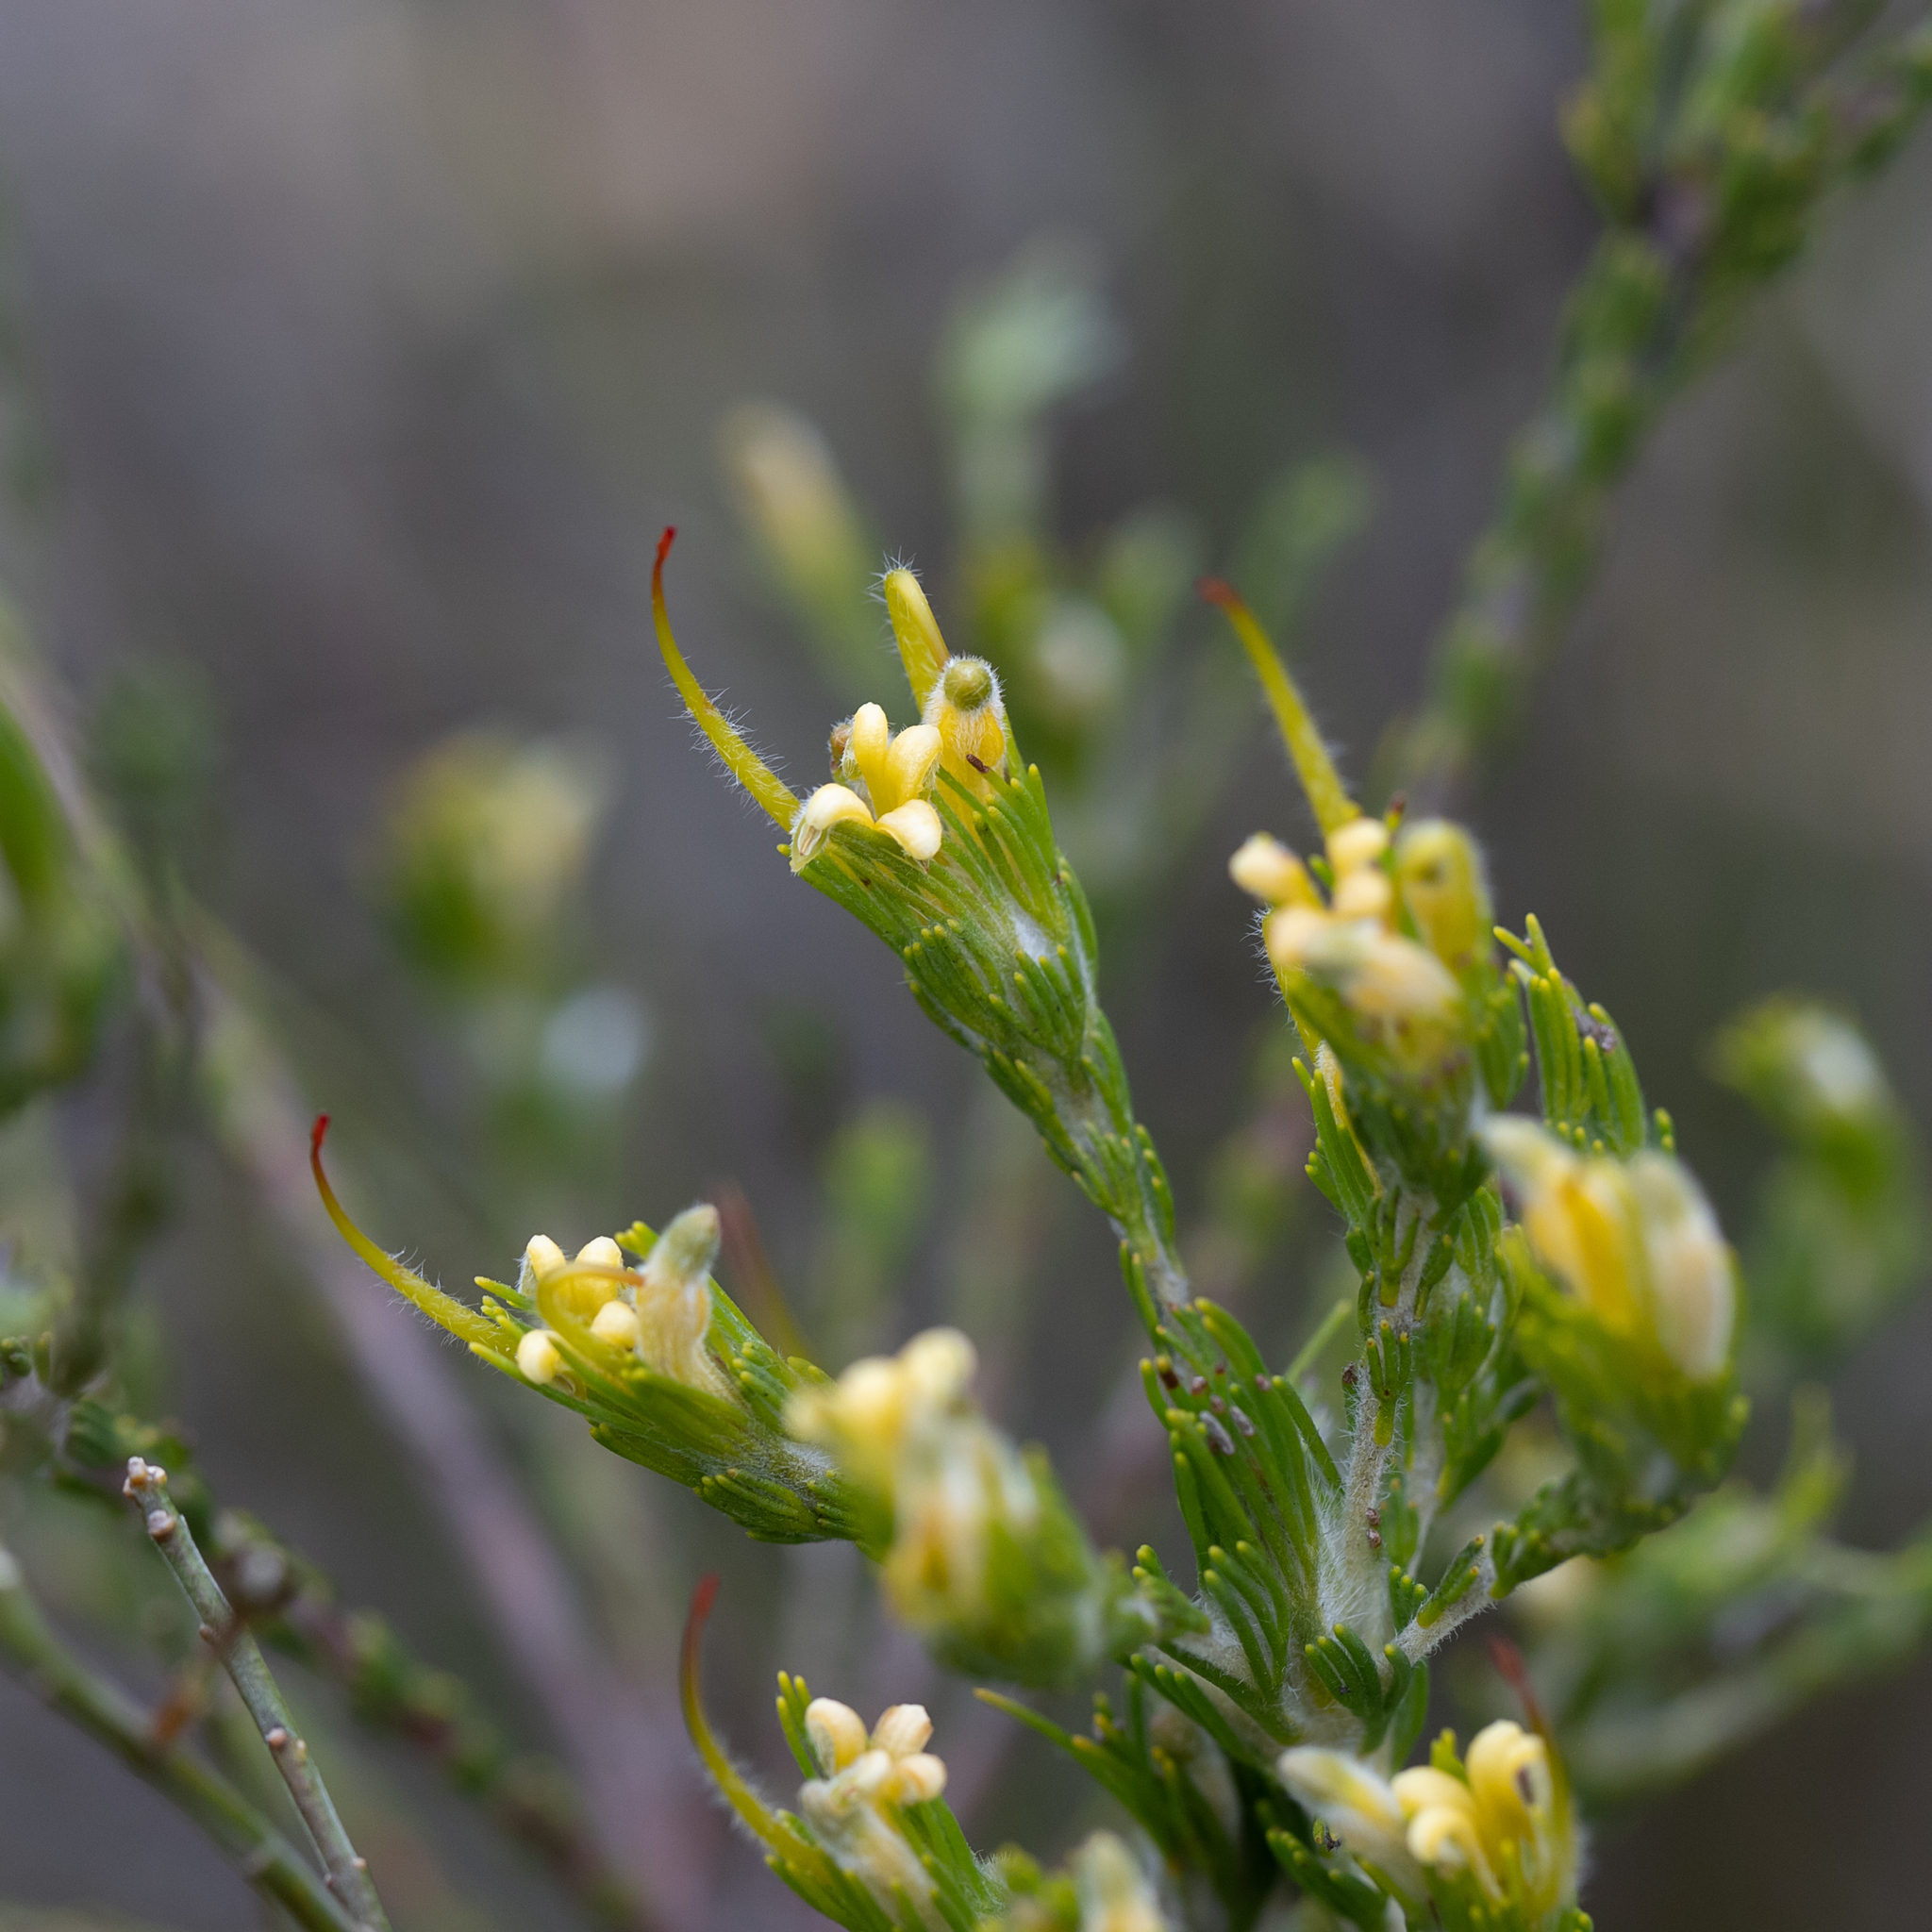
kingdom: Plantae
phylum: Tracheophyta
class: Magnoliopsida
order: Proteales
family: Proteaceae
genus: Adenanthos
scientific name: Adenanthos terminalis
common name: Yellow gland-flower
